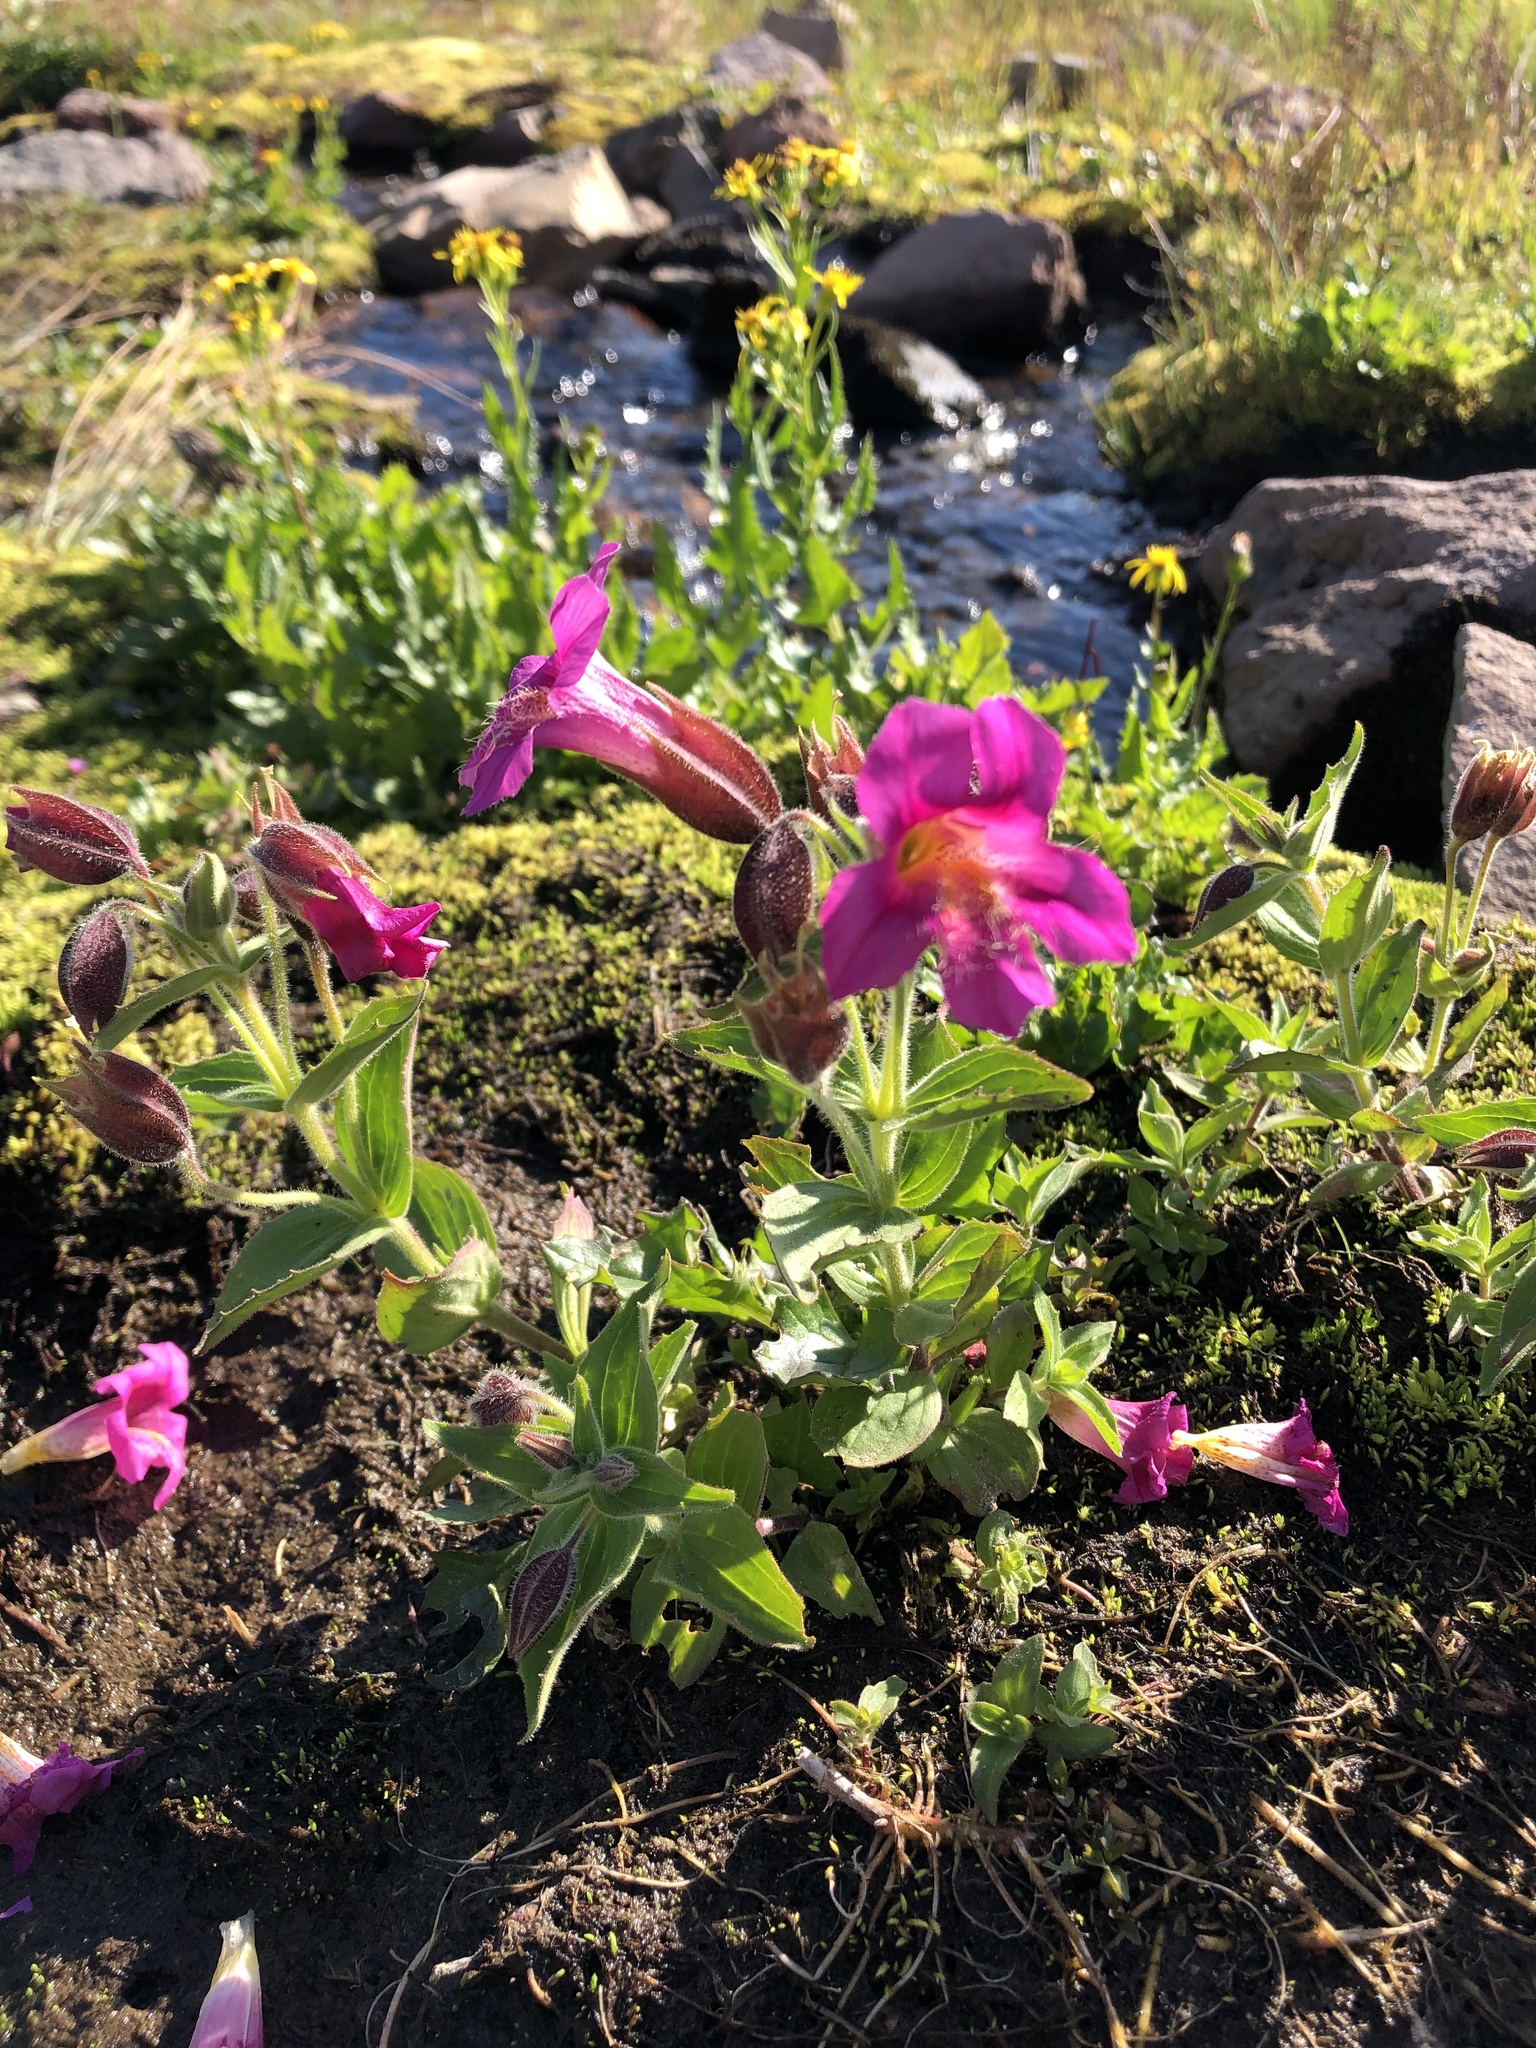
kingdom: Plantae
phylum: Tracheophyta
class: Magnoliopsida
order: Lamiales
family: Phrymaceae
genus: Erythranthe
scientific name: Erythranthe lewisii
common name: Lewis's monkey-flower
